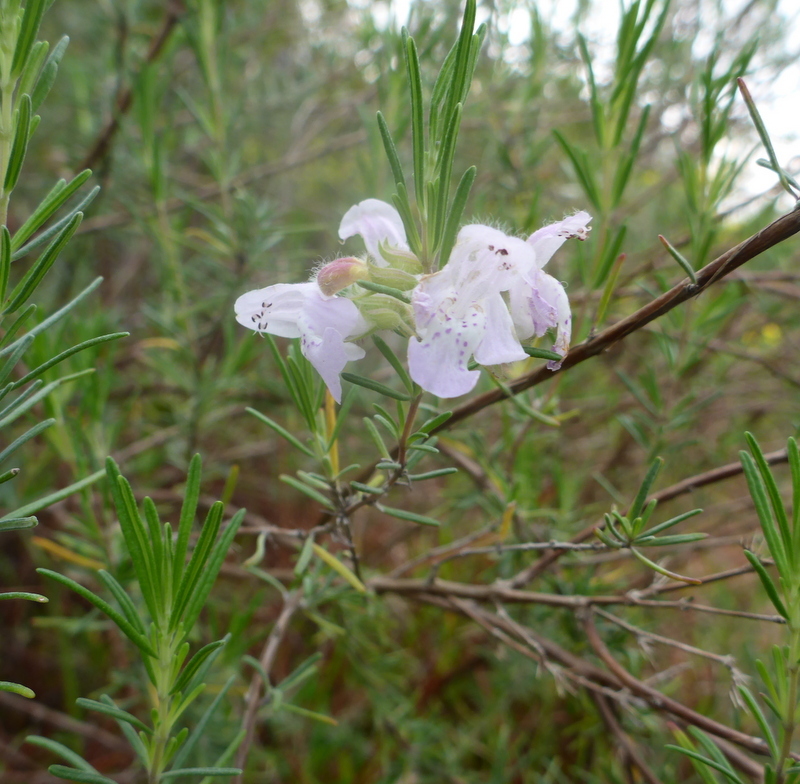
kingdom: Plantae
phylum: Tracheophyta
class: Magnoliopsida
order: Lamiales
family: Lamiaceae
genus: Conradina
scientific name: Conradina canescens
